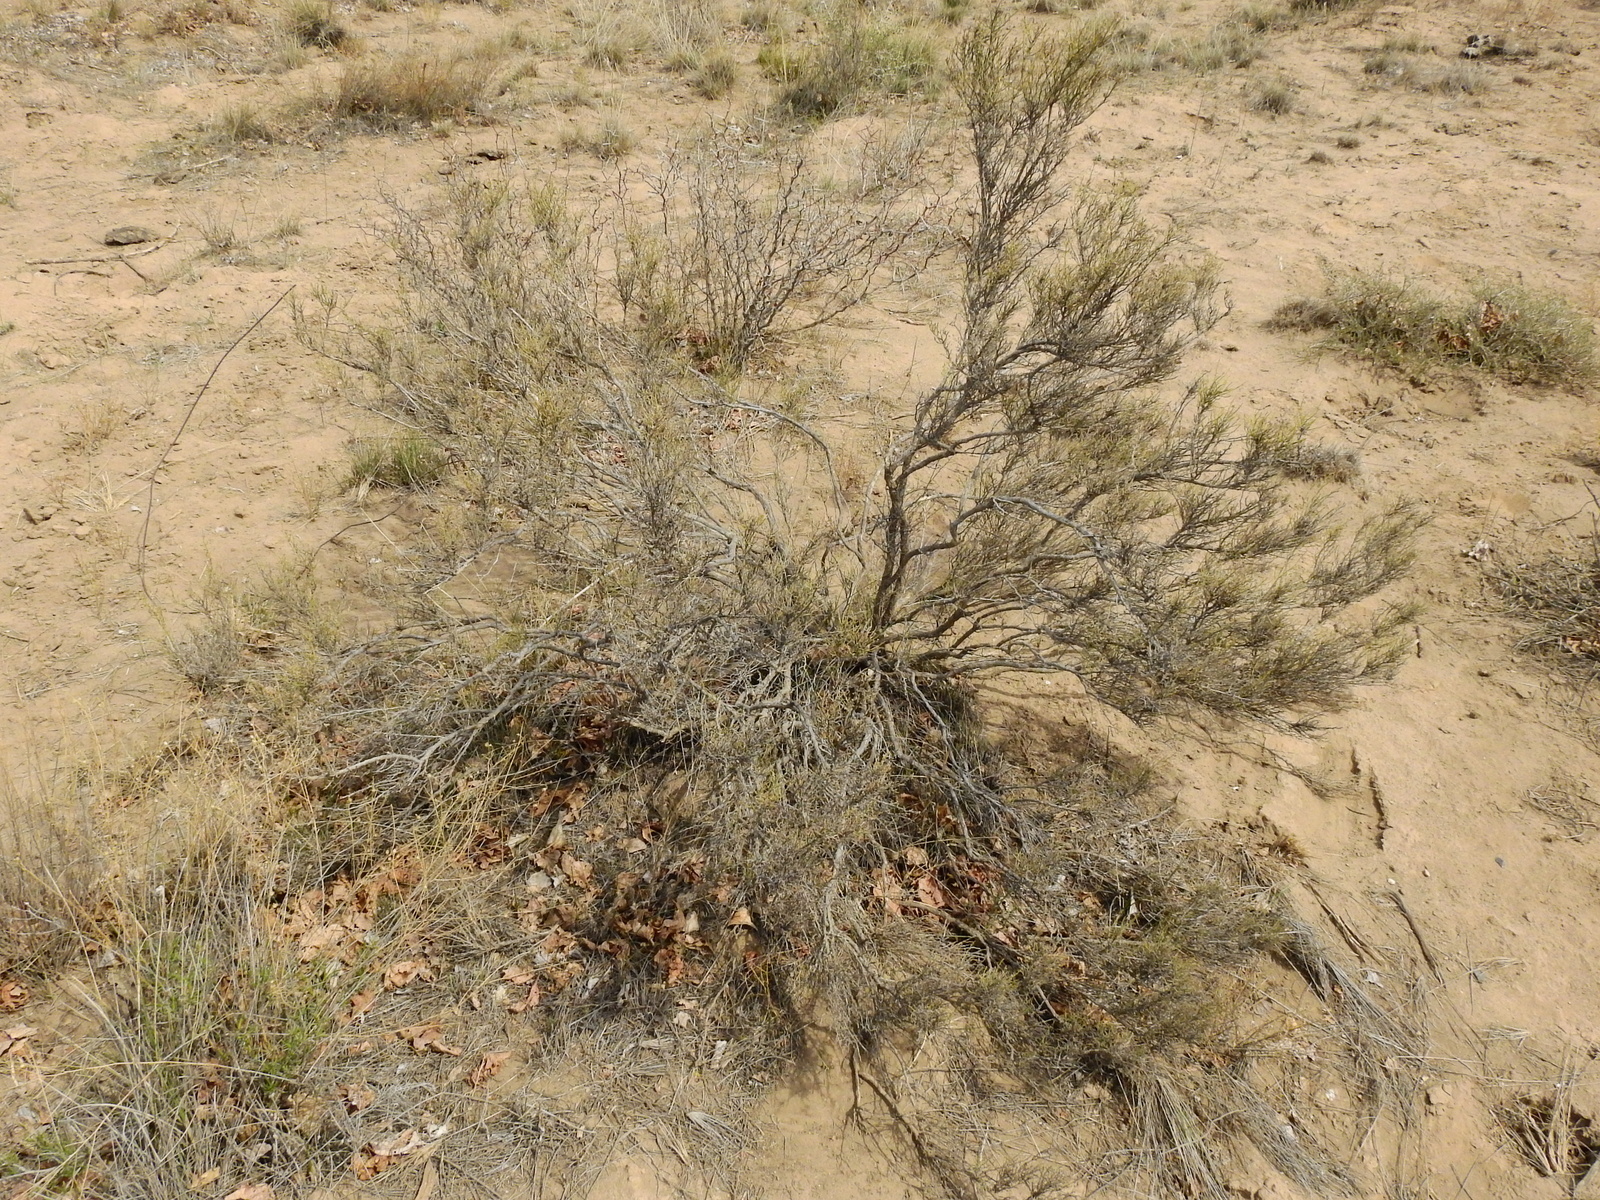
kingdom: Plantae
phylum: Tracheophyta
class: Magnoliopsida
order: Solanales
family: Solanaceae
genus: Fabiana
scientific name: Fabiana denudata
